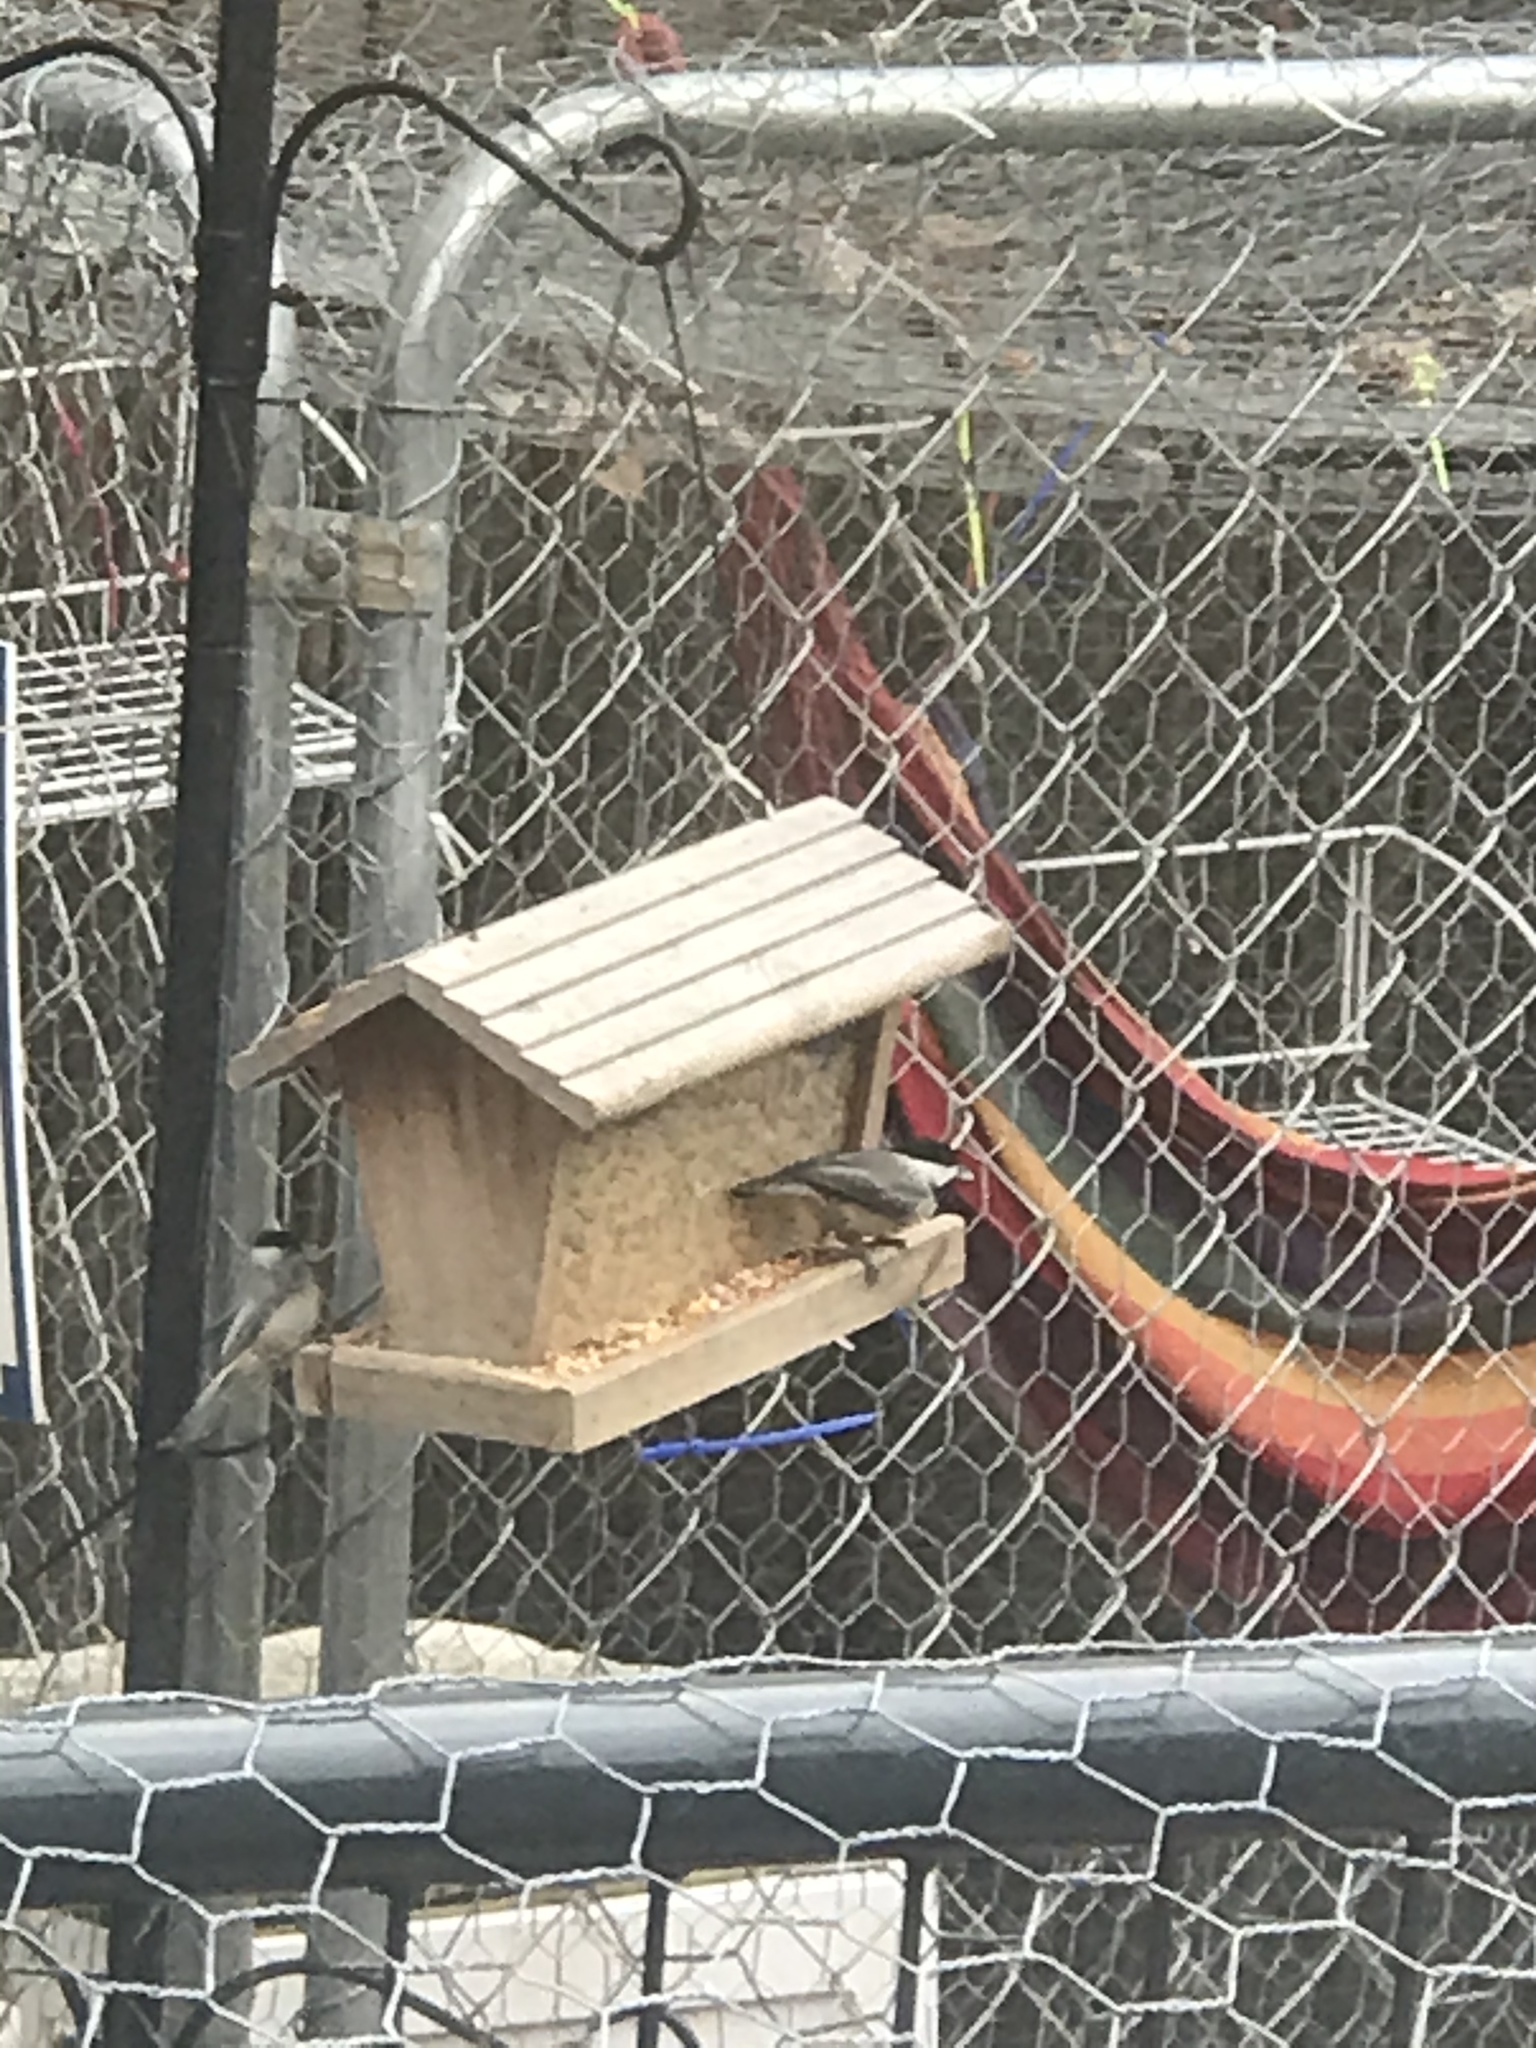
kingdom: Animalia
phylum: Chordata
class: Aves
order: Passeriformes
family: Paridae
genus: Poecile
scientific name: Poecile carolinensis
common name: Carolina chickadee
